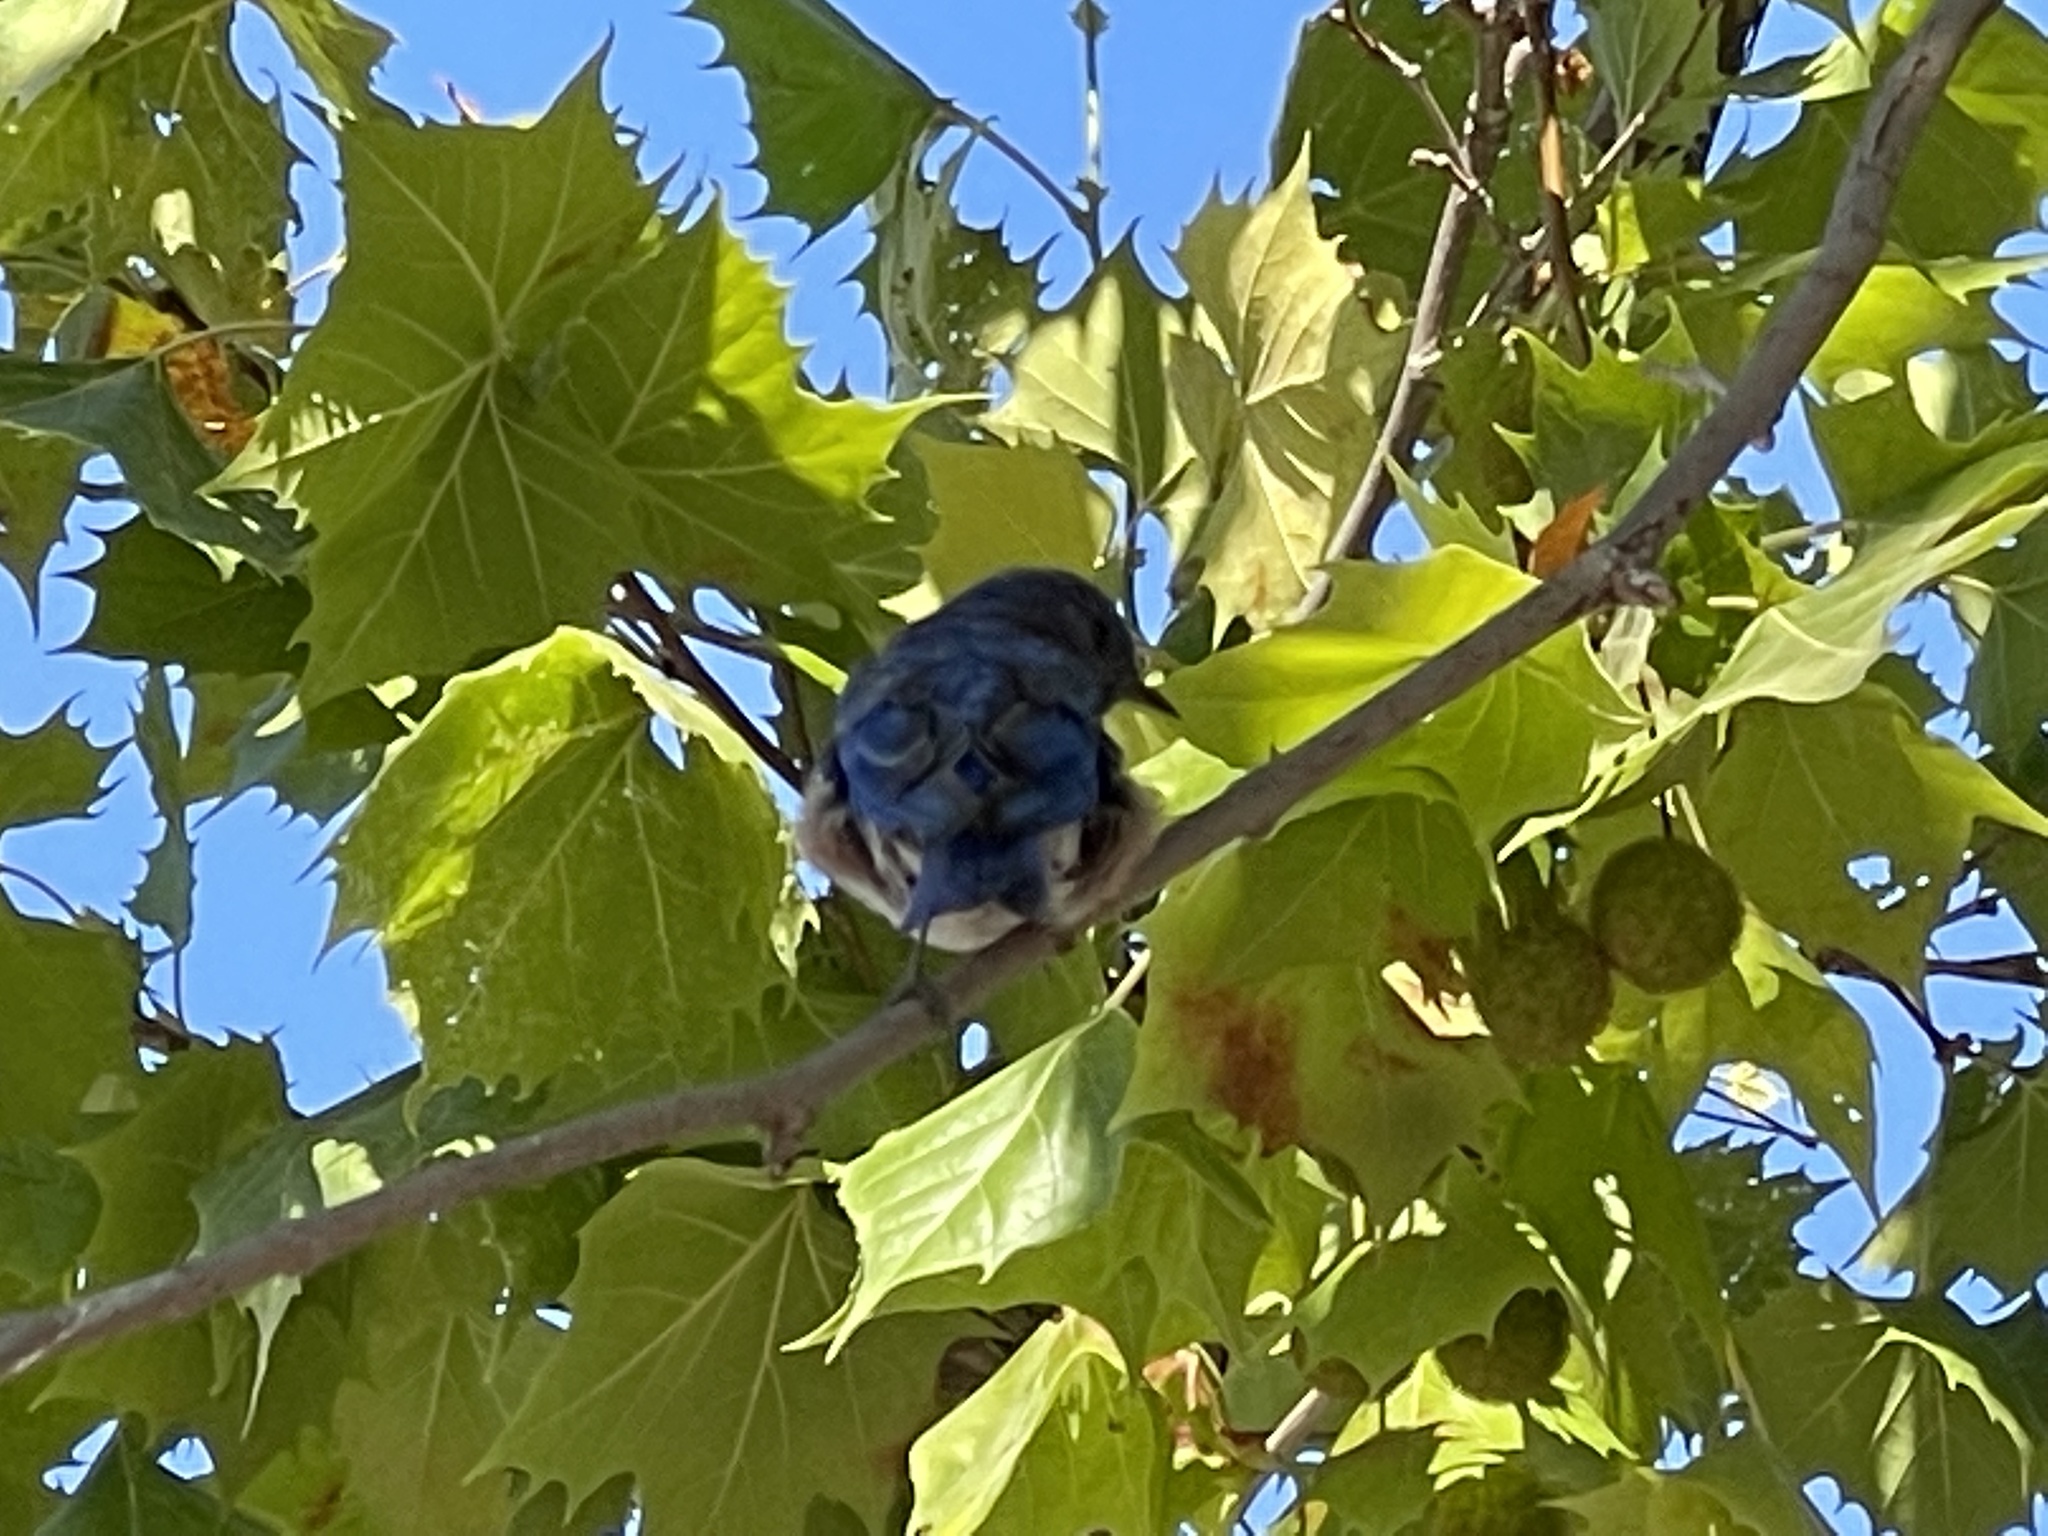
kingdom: Animalia
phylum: Chordata
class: Aves
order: Passeriformes
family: Turdidae
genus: Sialia
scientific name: Sialia mexicana
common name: Western bluebird
